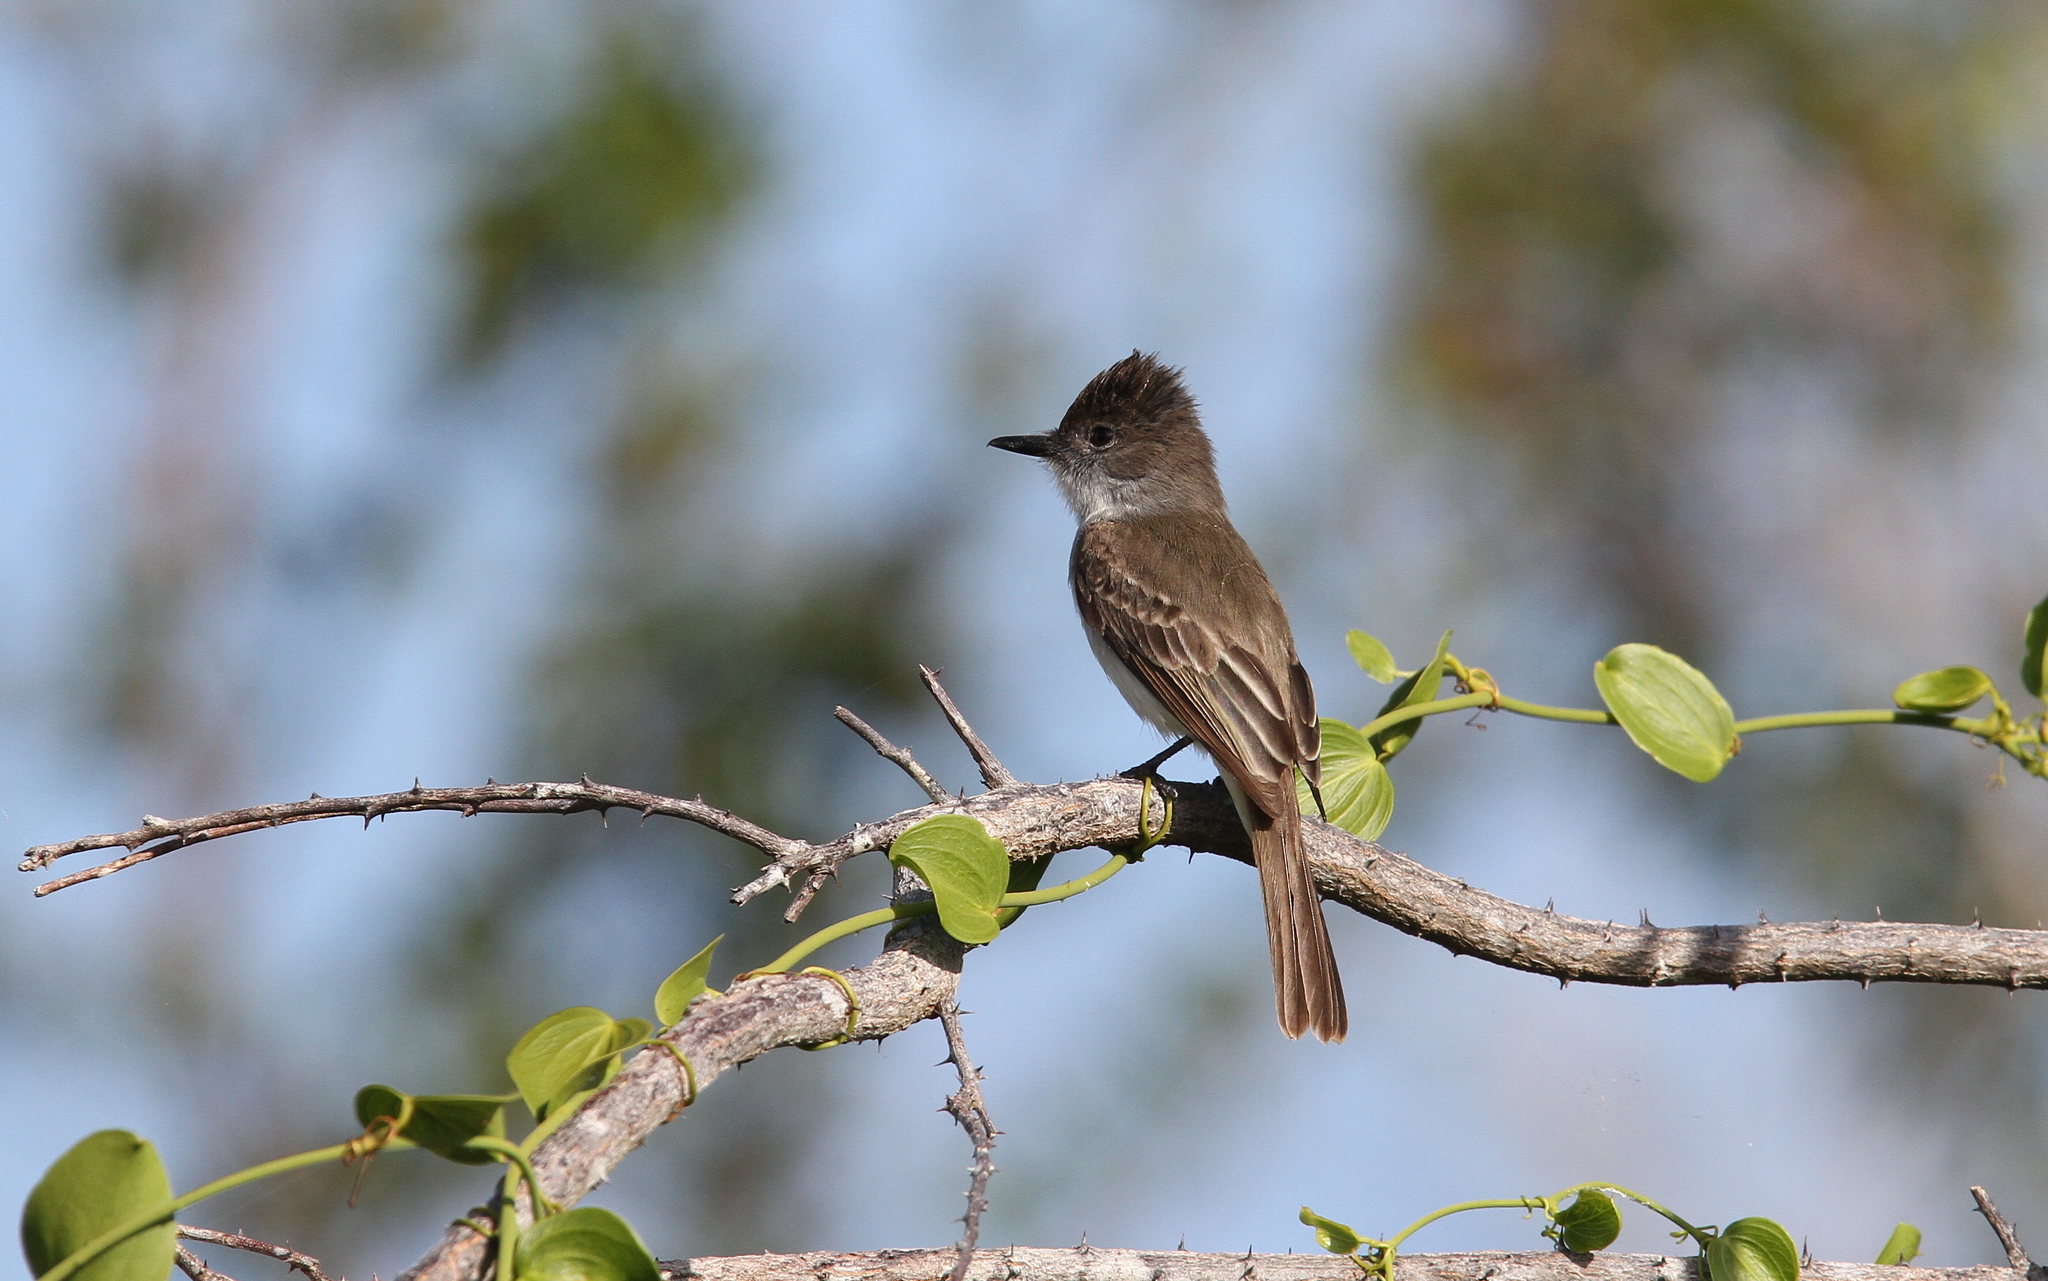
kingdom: Animalia
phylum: Chordata
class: Aves
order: Passeriformes
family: Tyrannidae
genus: Myiarchus
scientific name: Myiarchus sagrae
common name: La sagra's flycatcher
